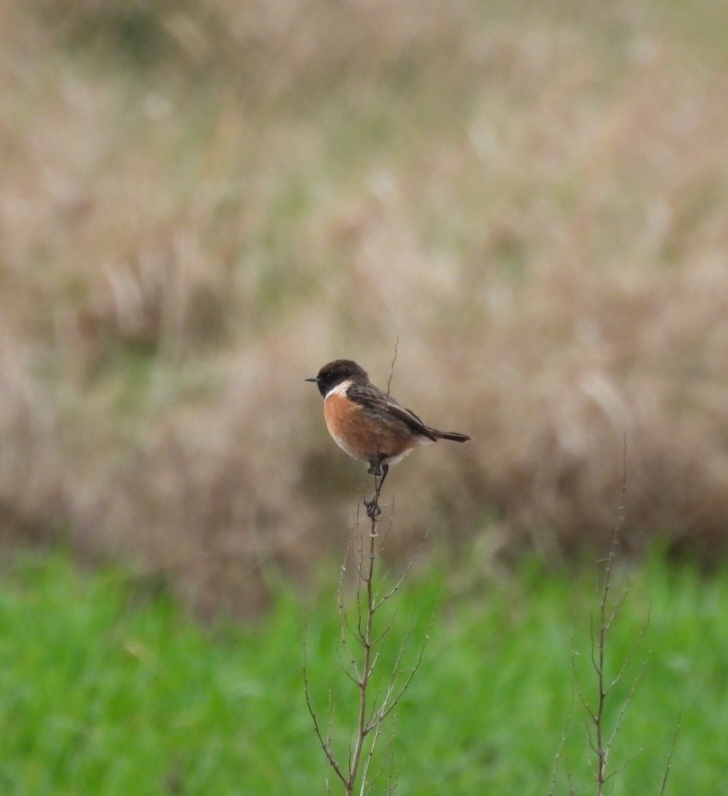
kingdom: Animalia
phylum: Chordata
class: Aves
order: Passeriformes
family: Muscicapidae
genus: Saxicola
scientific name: Saxicola rubicola
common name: European stonechat
